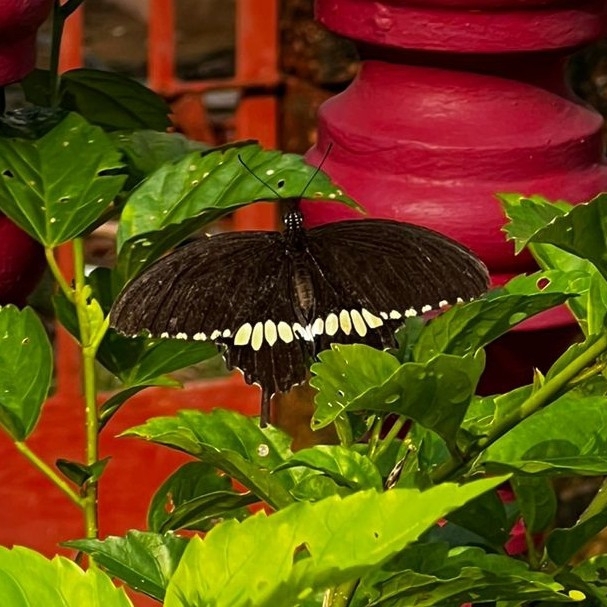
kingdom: Animalia
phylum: Arthropoda
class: Insecta
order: Lepidoptera
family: Papilionidae
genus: Papilio
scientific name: Papilio polytes
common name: Common mormon
